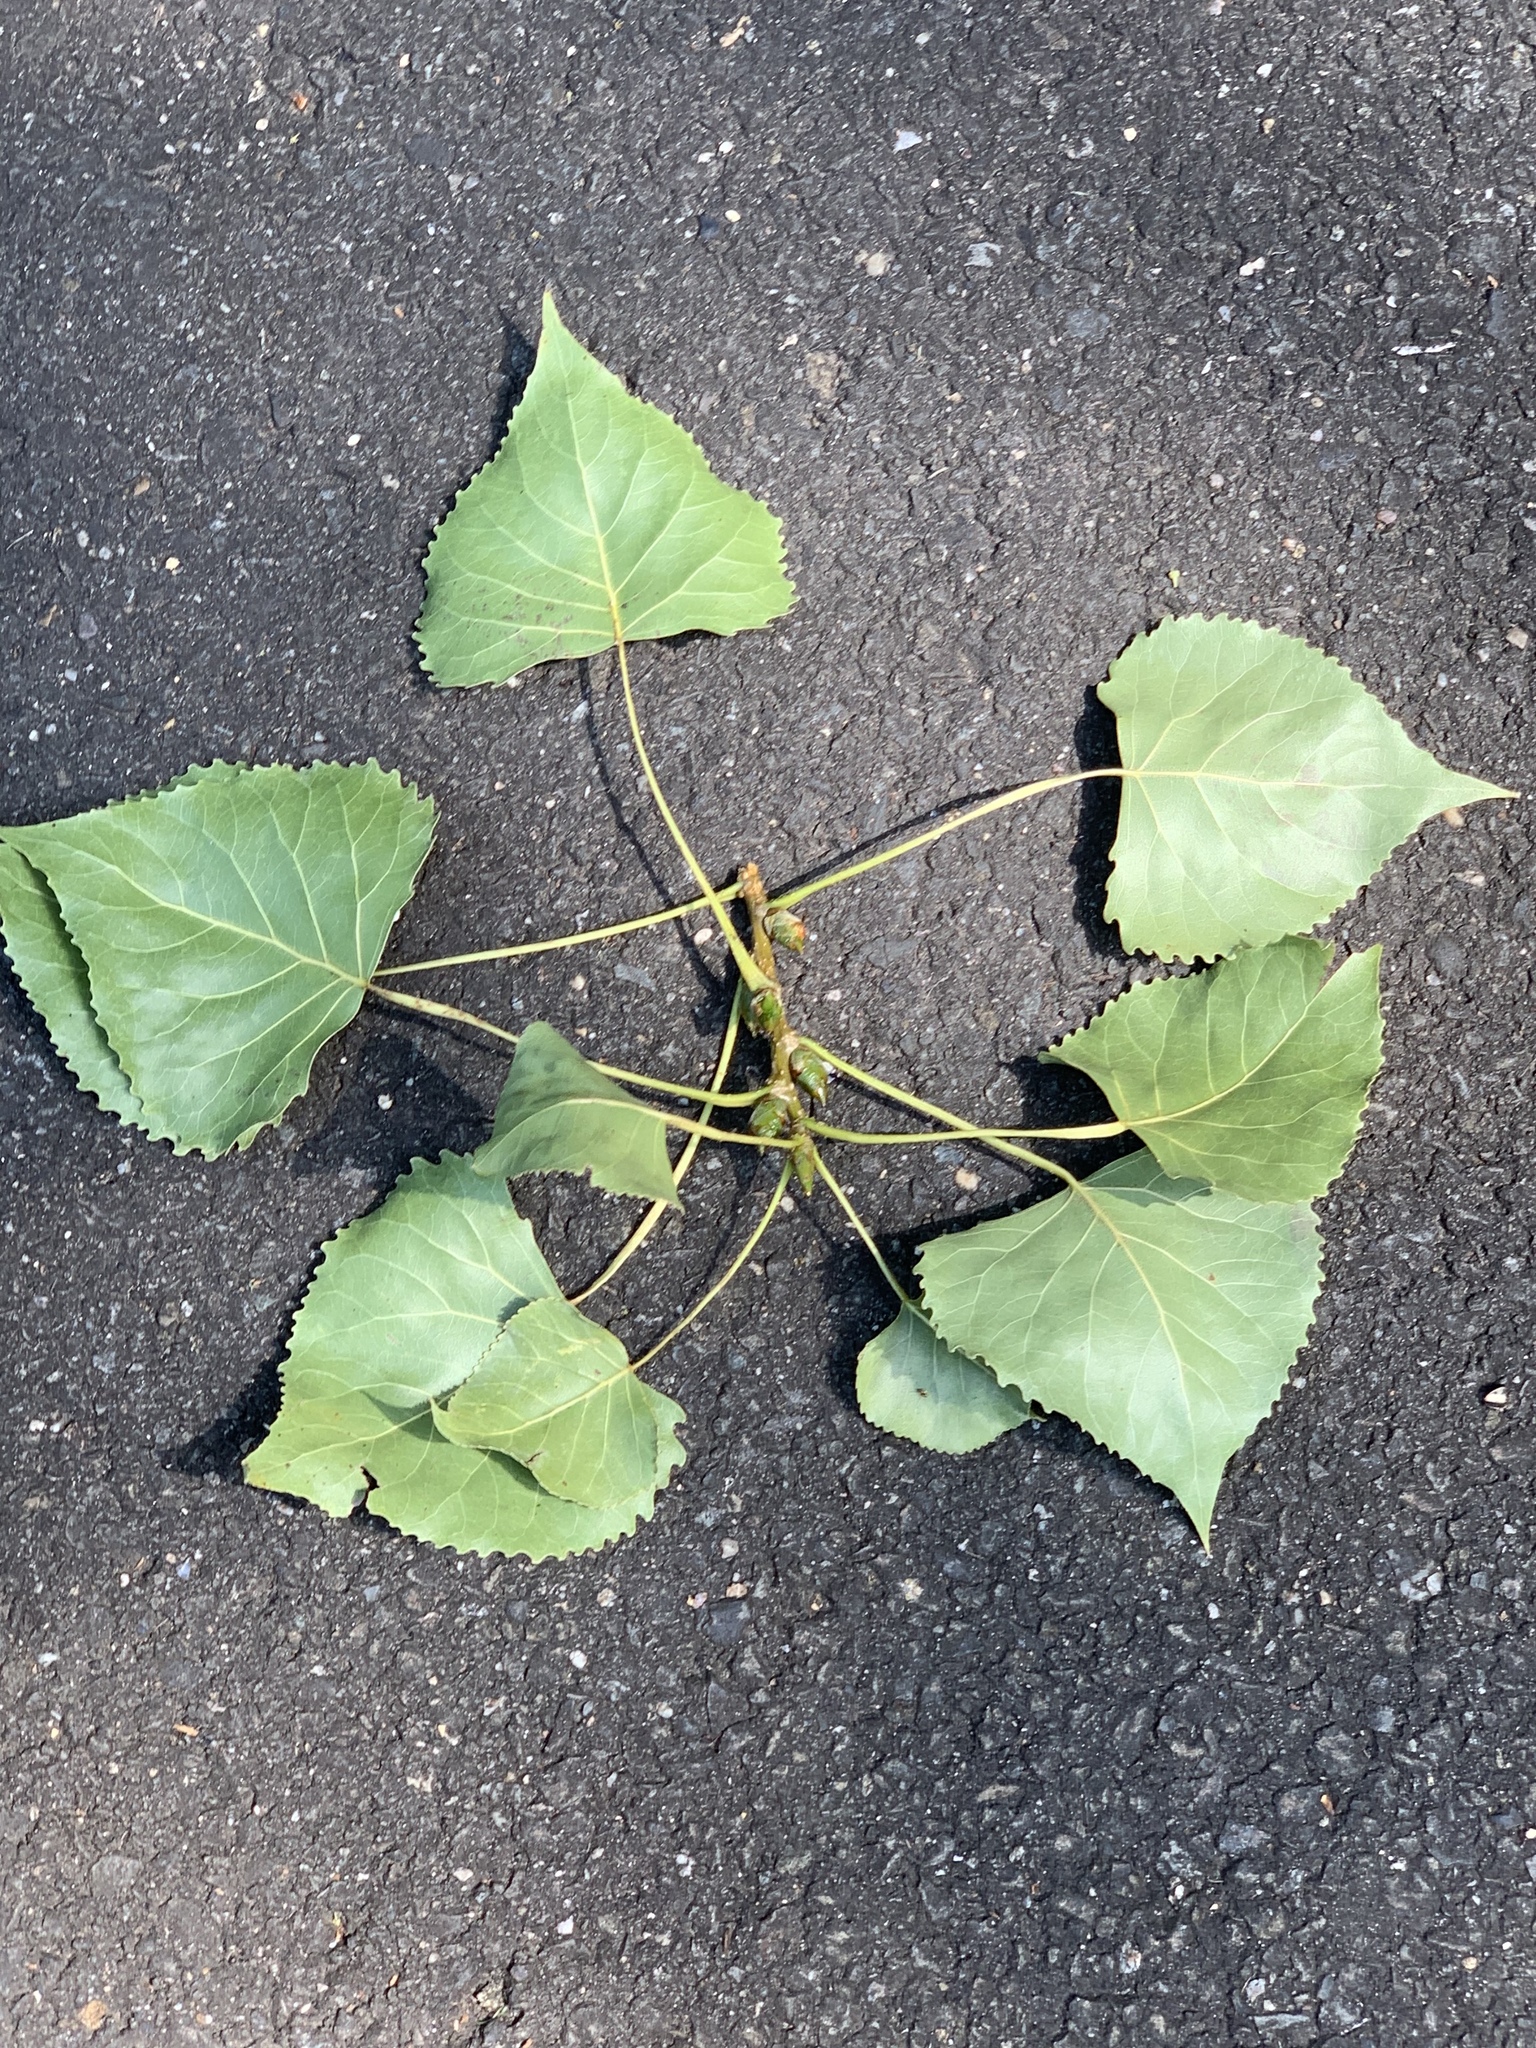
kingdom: Plantae
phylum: Tracheophyta
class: Magnoliopsida
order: Malpighiales
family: Salicaceae
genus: Populus
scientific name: Populus deltoides
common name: Eastern cottonwood
